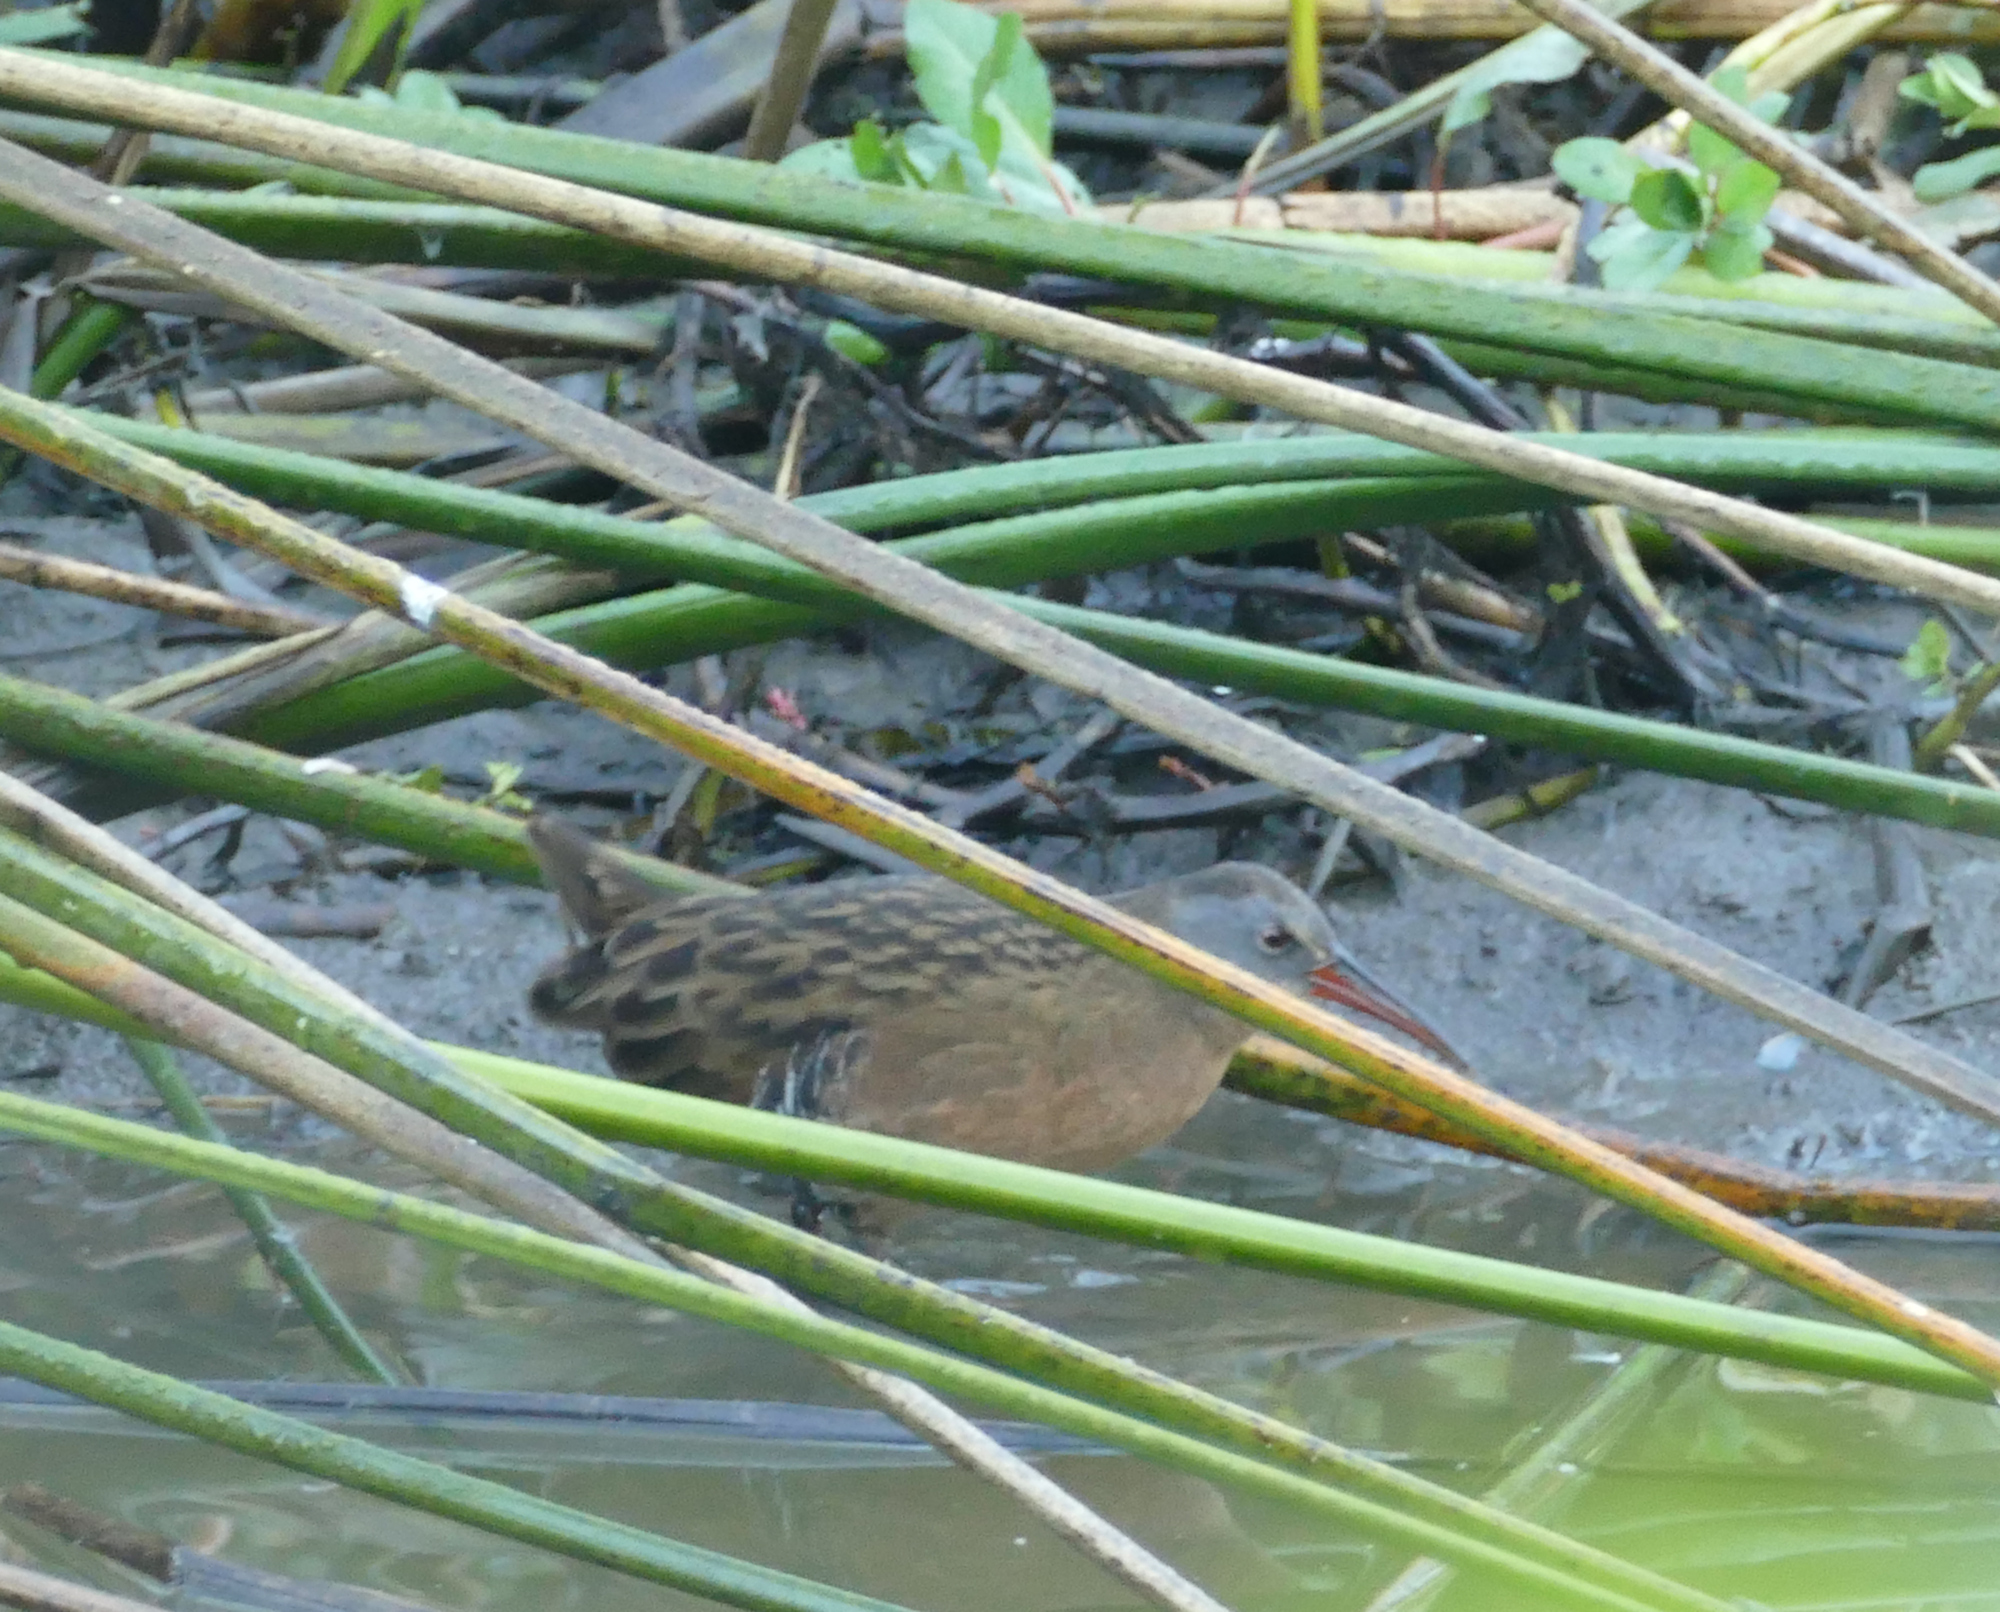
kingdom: Animalia
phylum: Chordata
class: Aves
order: Gruiformes
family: Rallidae
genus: Rallus
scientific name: Rallus limicola
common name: Virginia rail
